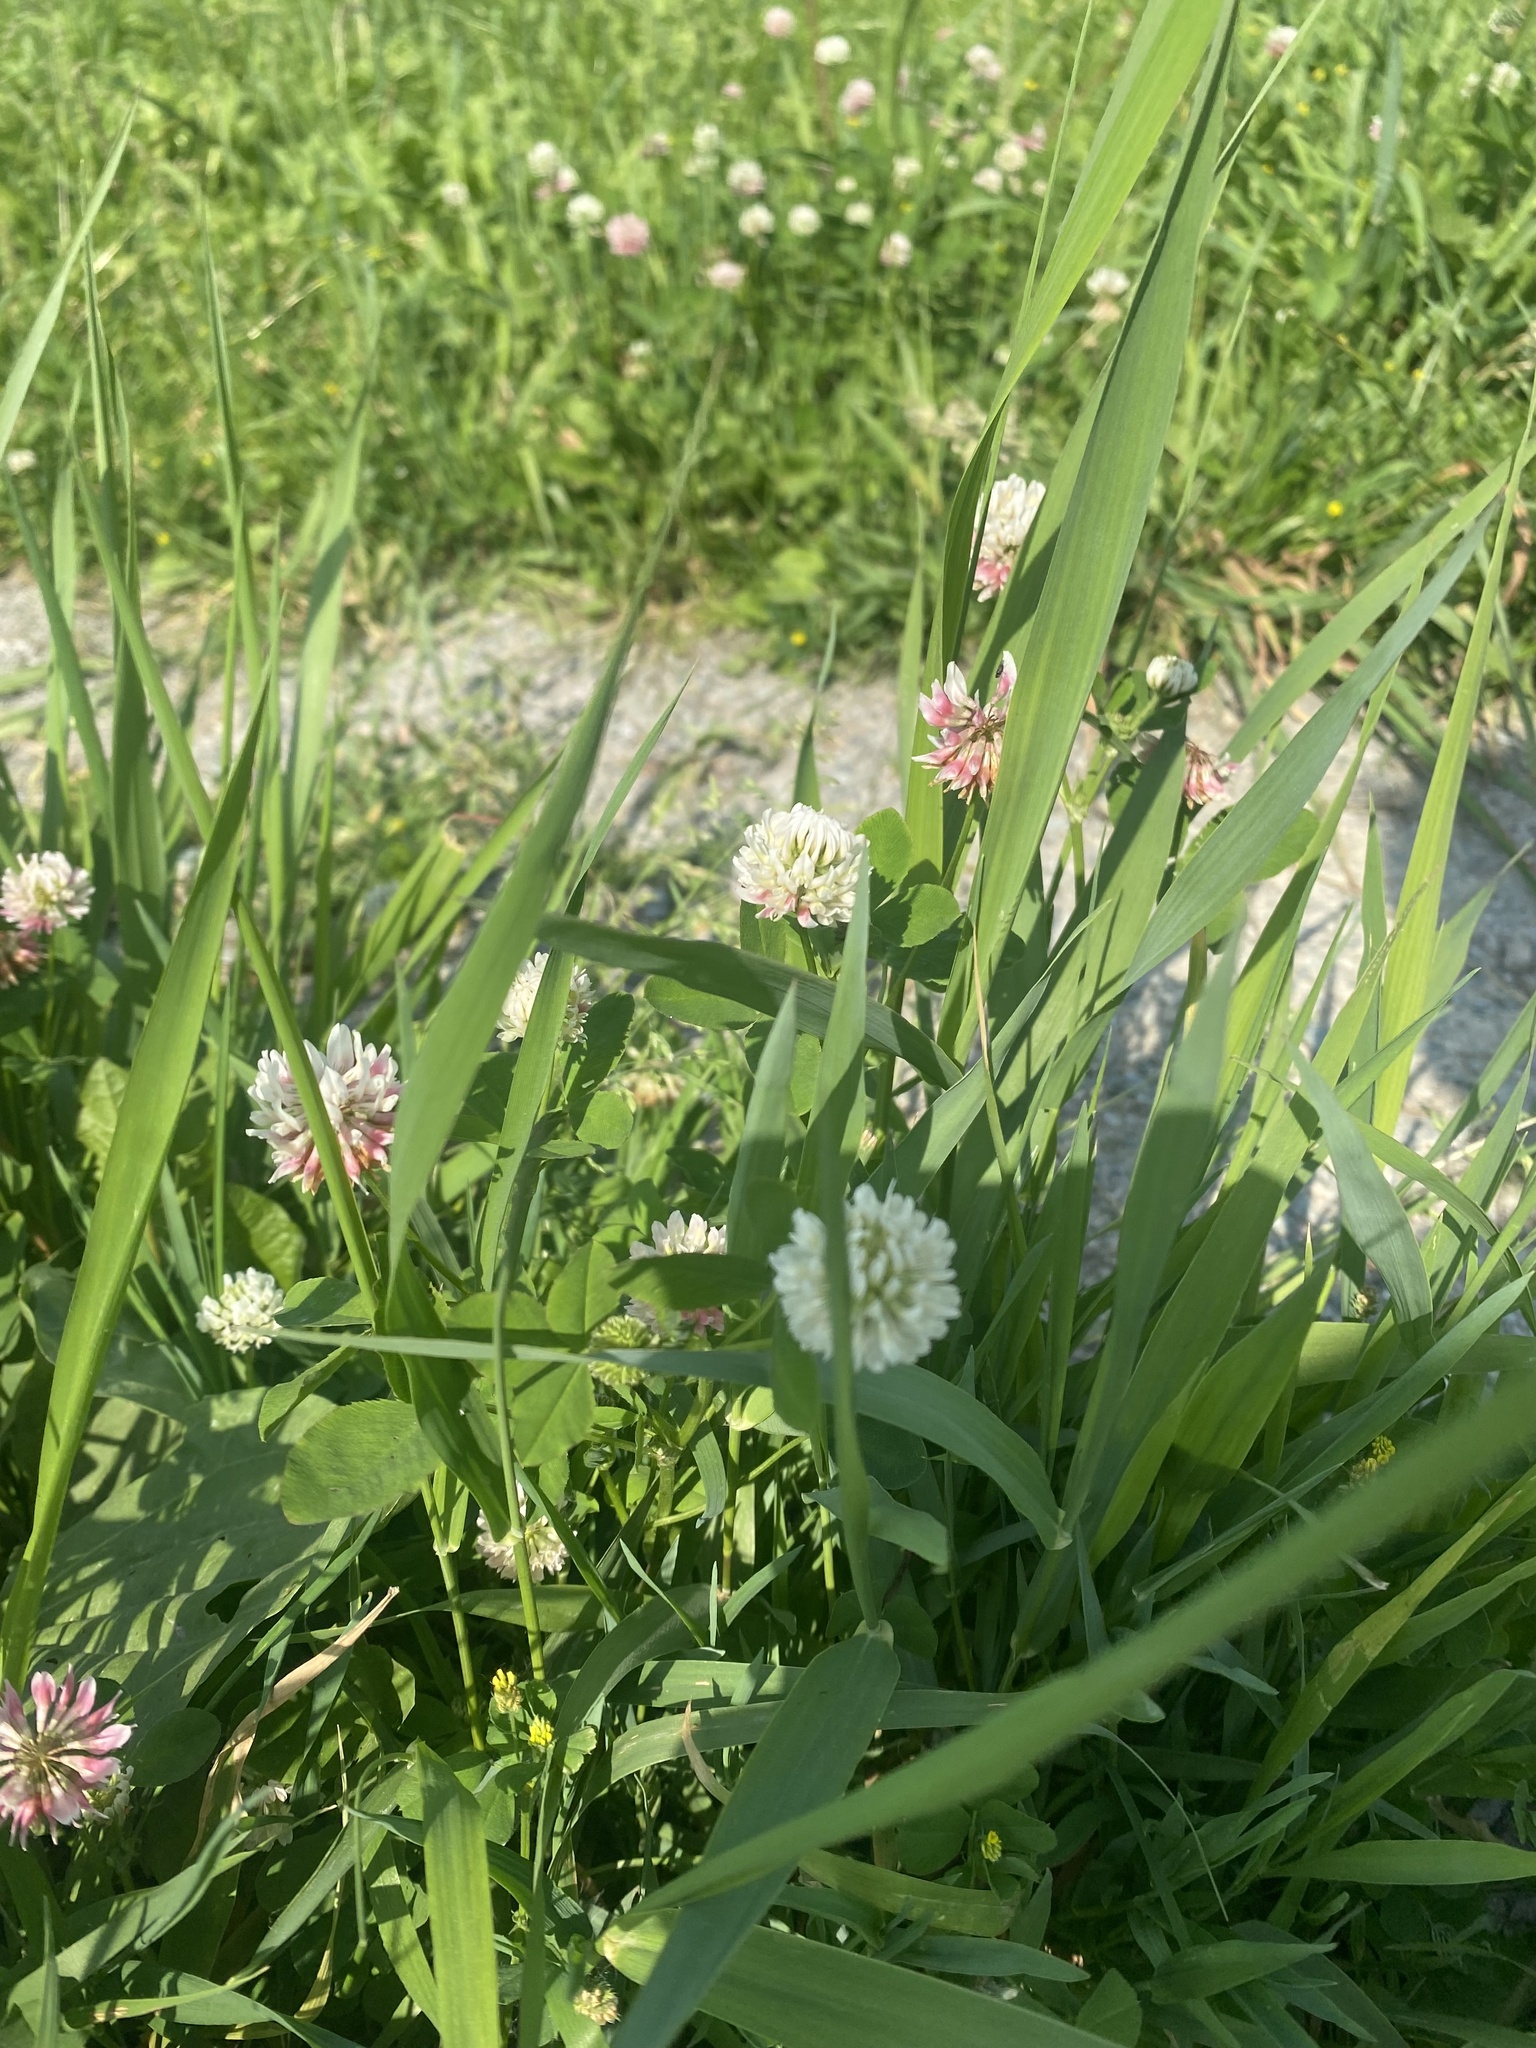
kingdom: Plantae
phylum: Tracheophyta
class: Magnoliopsida
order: Fabales
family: Fabaceae
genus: Trifolium
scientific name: Trifolium hybridum
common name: Alsike clover
